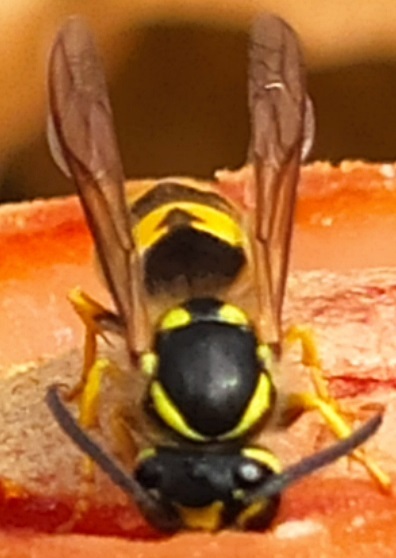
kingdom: Animalia
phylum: Arthropoda
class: Insecta
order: Hymenoptera
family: Vespidae
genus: Vespula
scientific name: Vespula germanica
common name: German wasp
